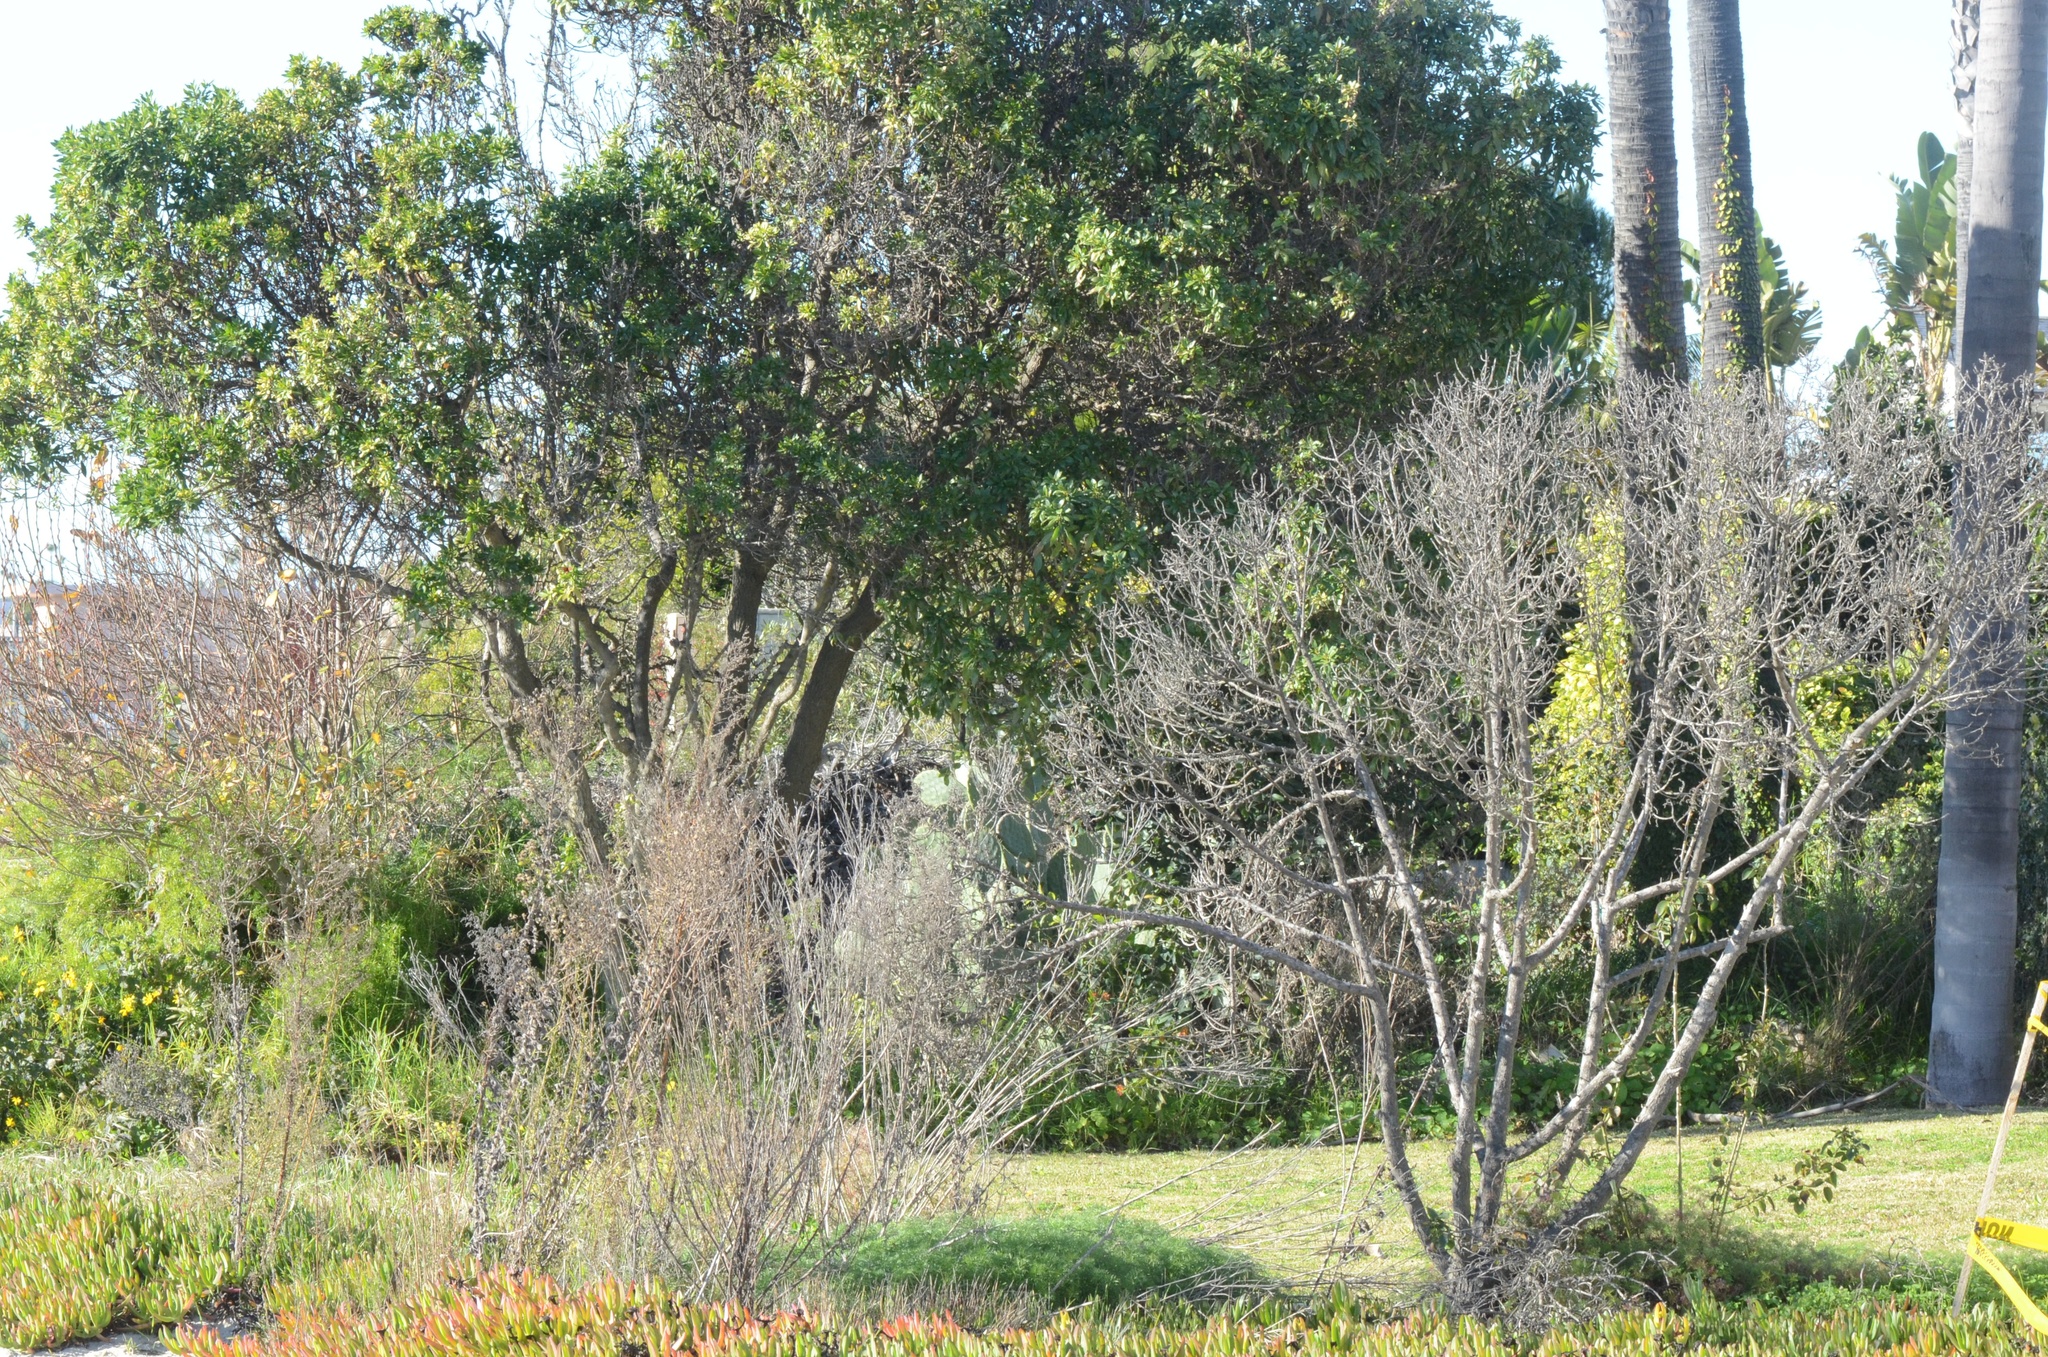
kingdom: Plantae
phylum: Tracheophyta
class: Magnoliopsida
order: Lamiales
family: Scrophulariaceae
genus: Myoporum
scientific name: Myoporum laetum
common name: Ngaio tree
